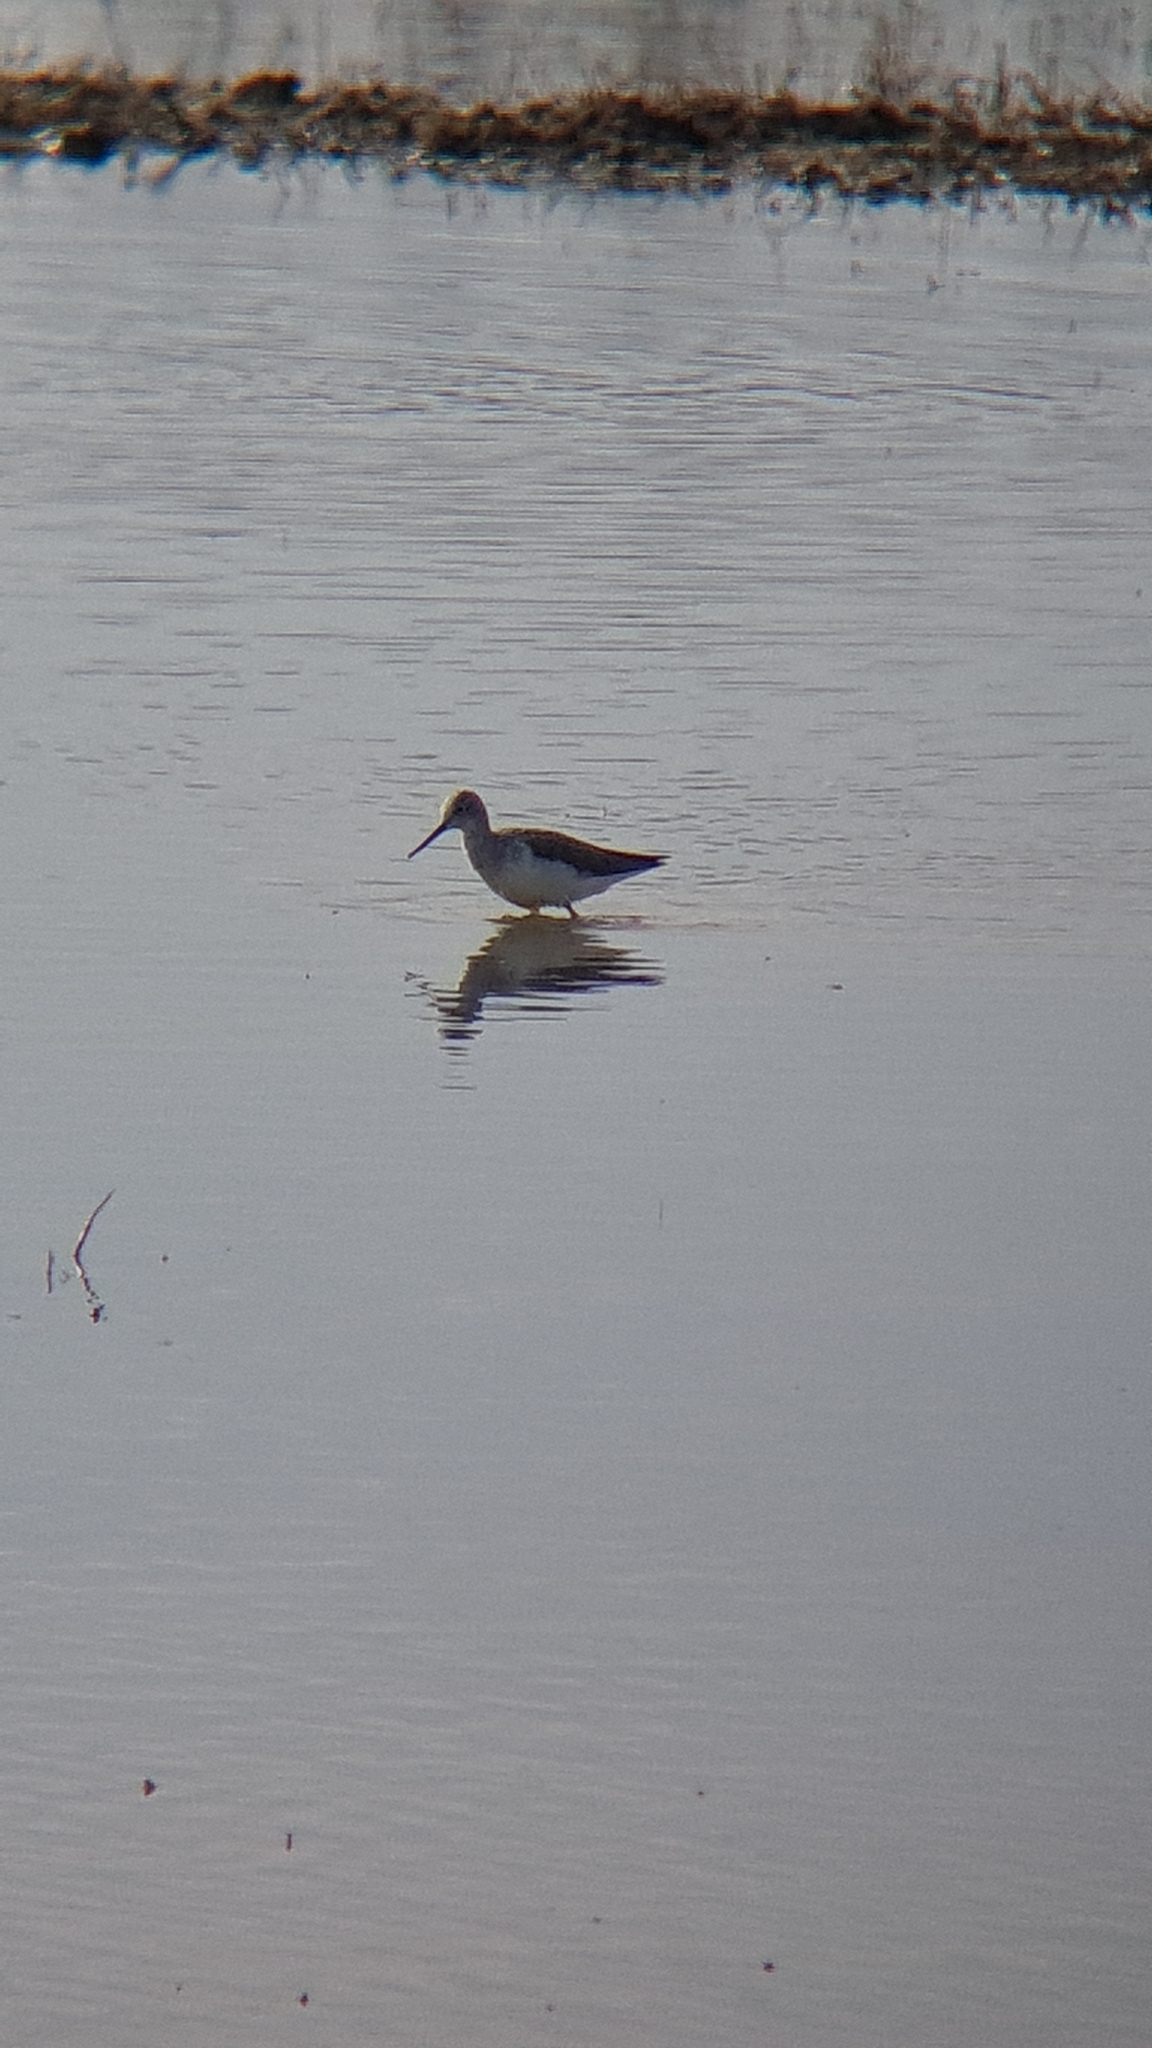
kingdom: Animalia
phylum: Chordata
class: Aves
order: Charadriiformes
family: Scolopacidae
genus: Tringa
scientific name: Tringa nebularia
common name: Common greenshank
